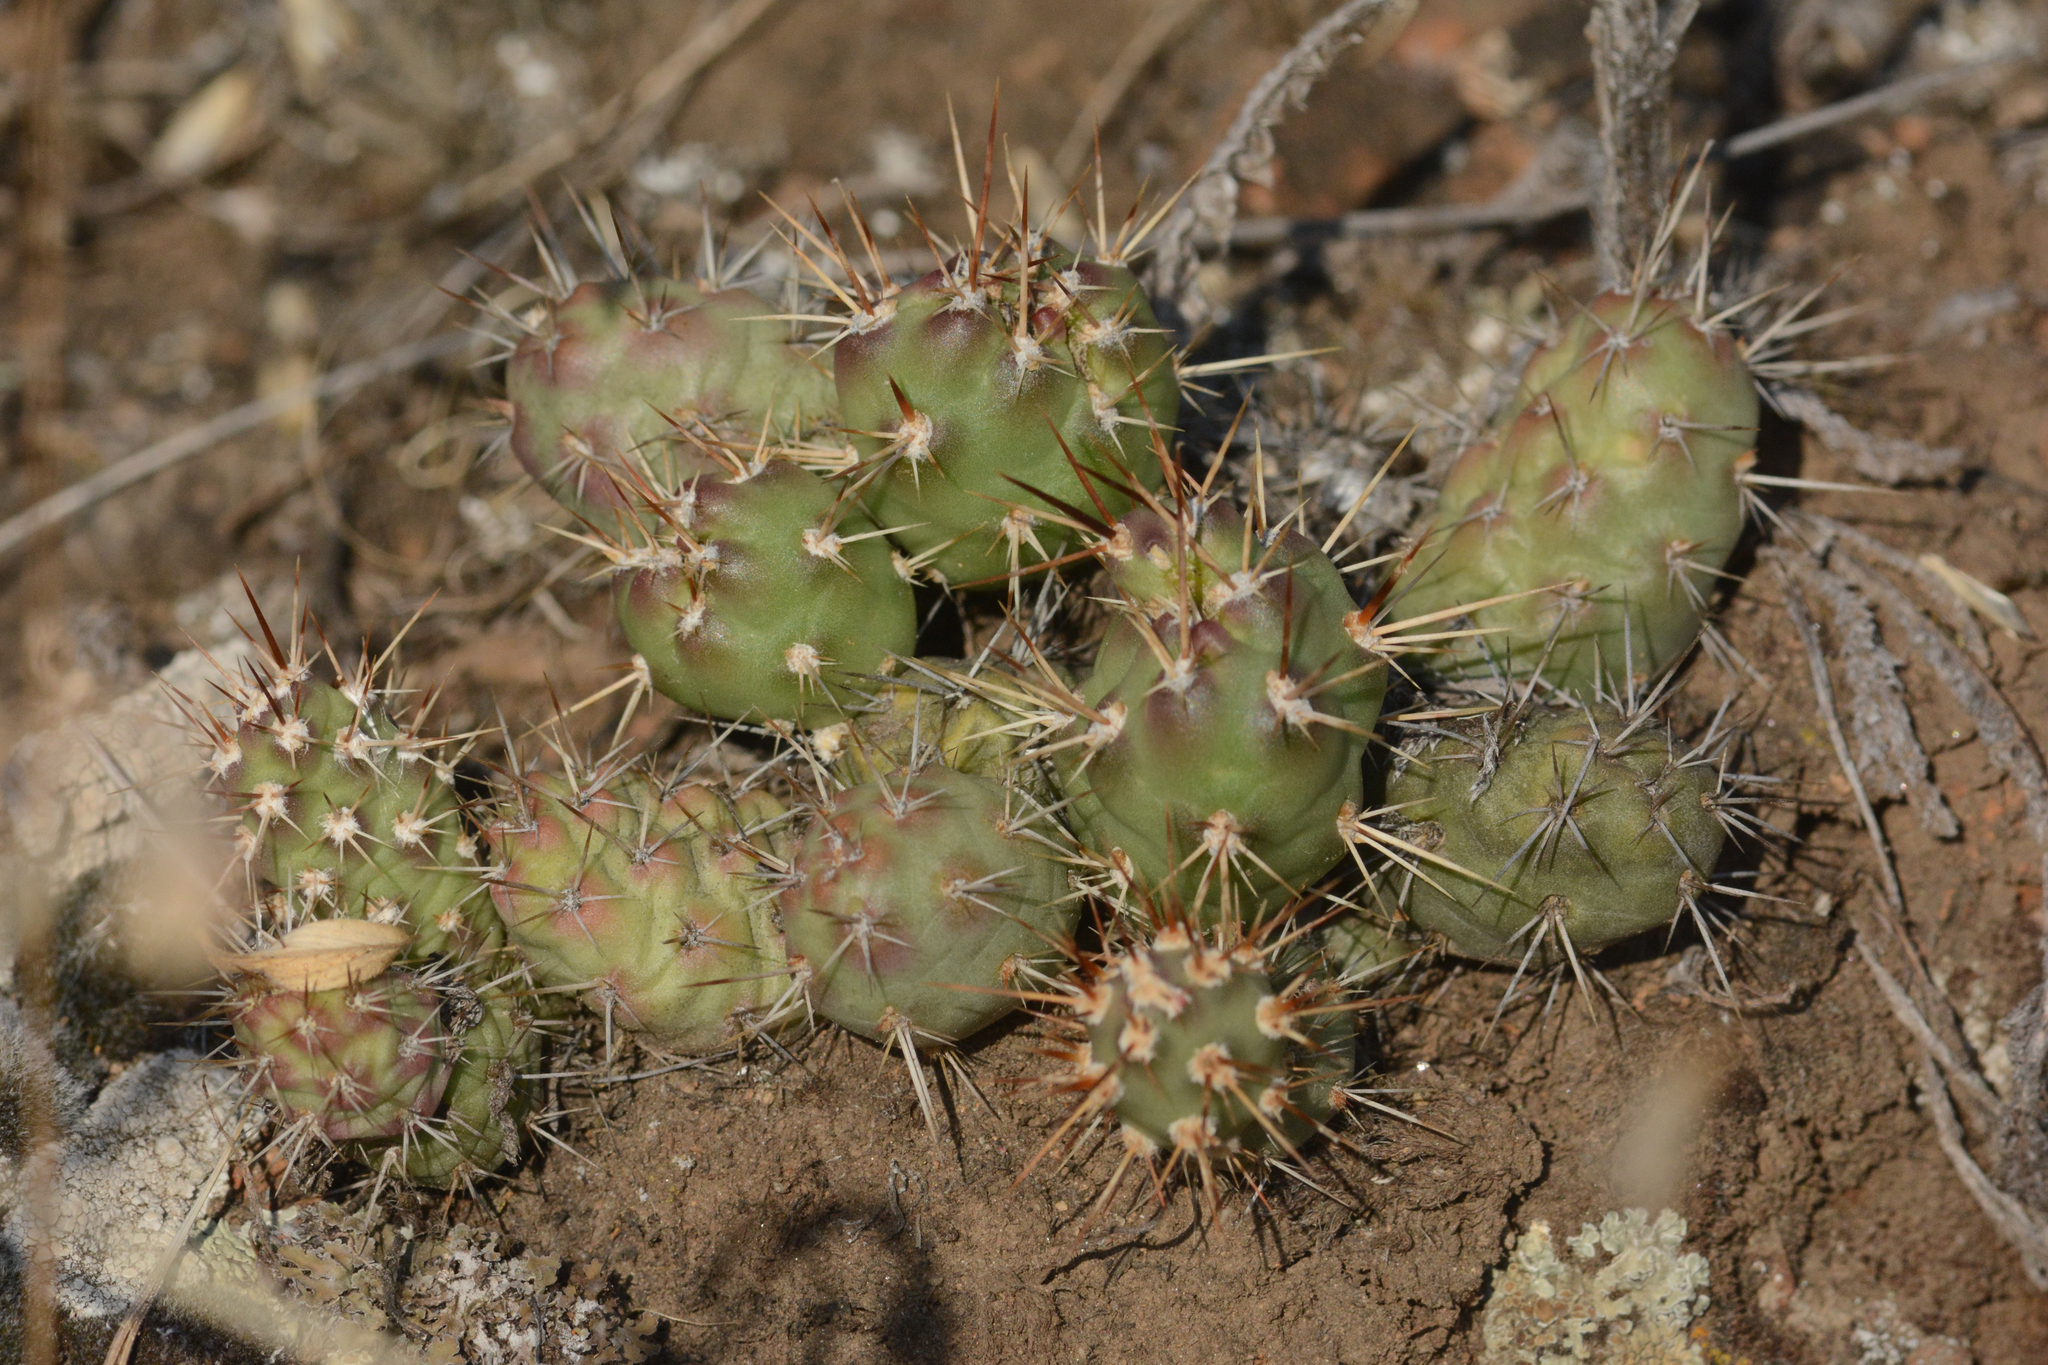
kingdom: Plantae
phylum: Tracheophyta
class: Magnoliopsida
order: Caryophyllales
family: Cactaceae
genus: Opuntia
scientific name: Opuntia fragilis
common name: Brittle cactus
